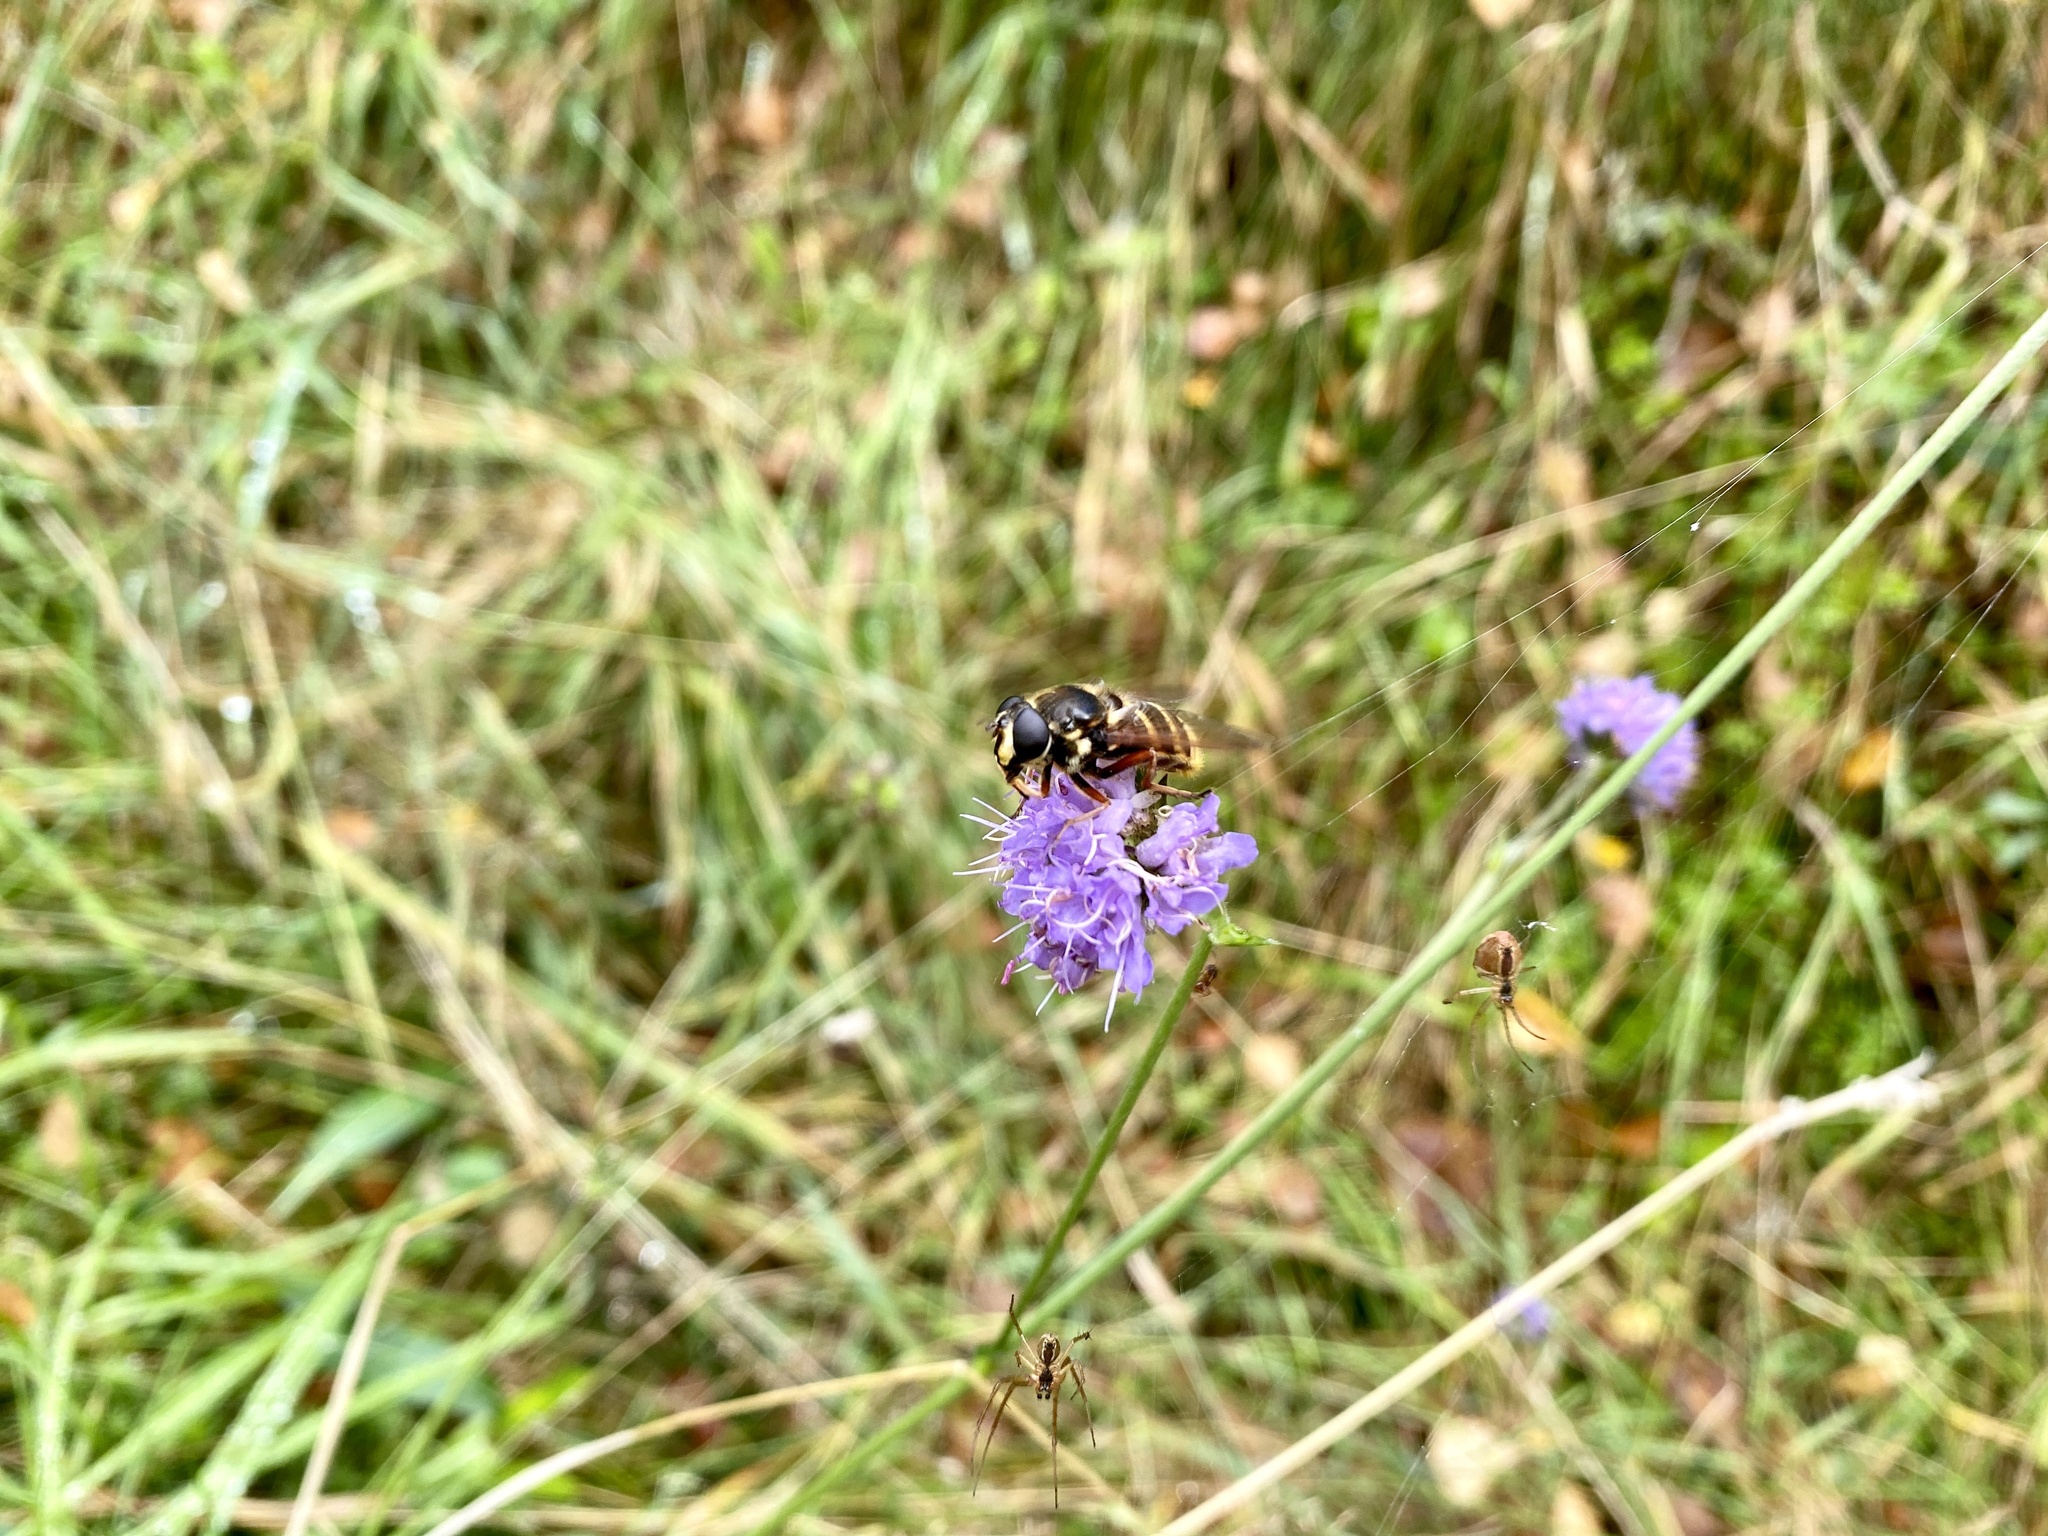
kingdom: Animalia
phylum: Arthropoda
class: Insecta
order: Diptera
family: Syrphidae
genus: Sericomyia
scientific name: Sericomyia silentis
